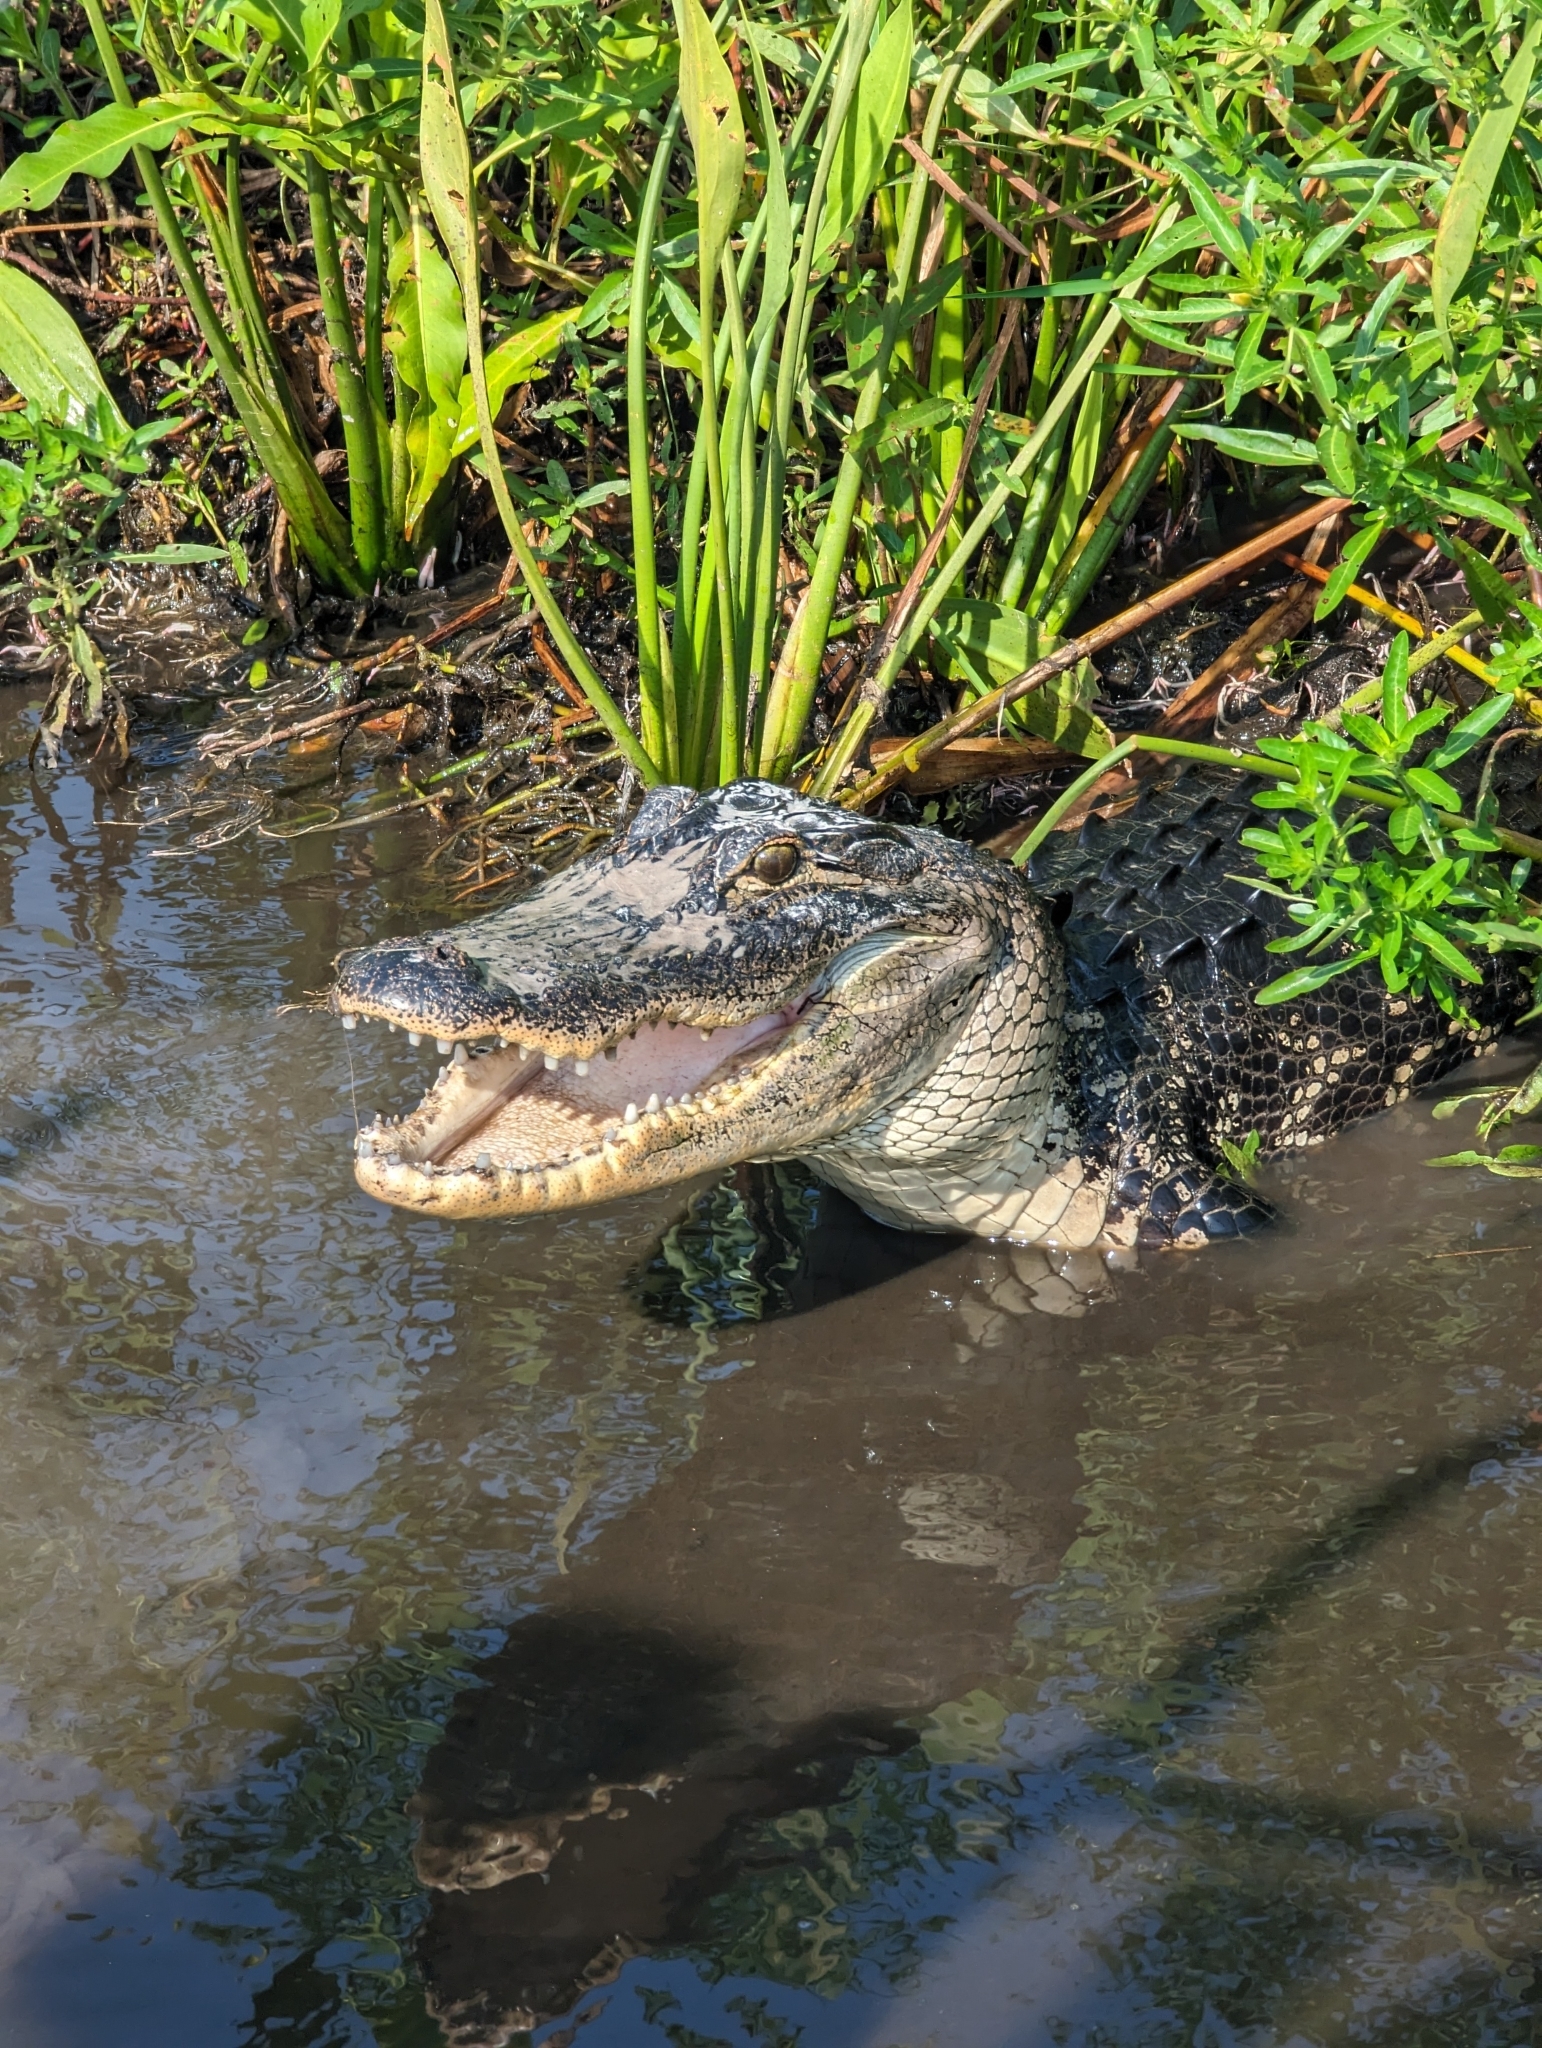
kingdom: Animalia
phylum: Chordata
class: Crocodylia
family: Alligatoridae
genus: Alligator
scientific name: Alligator mississippiensis
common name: American alligator
